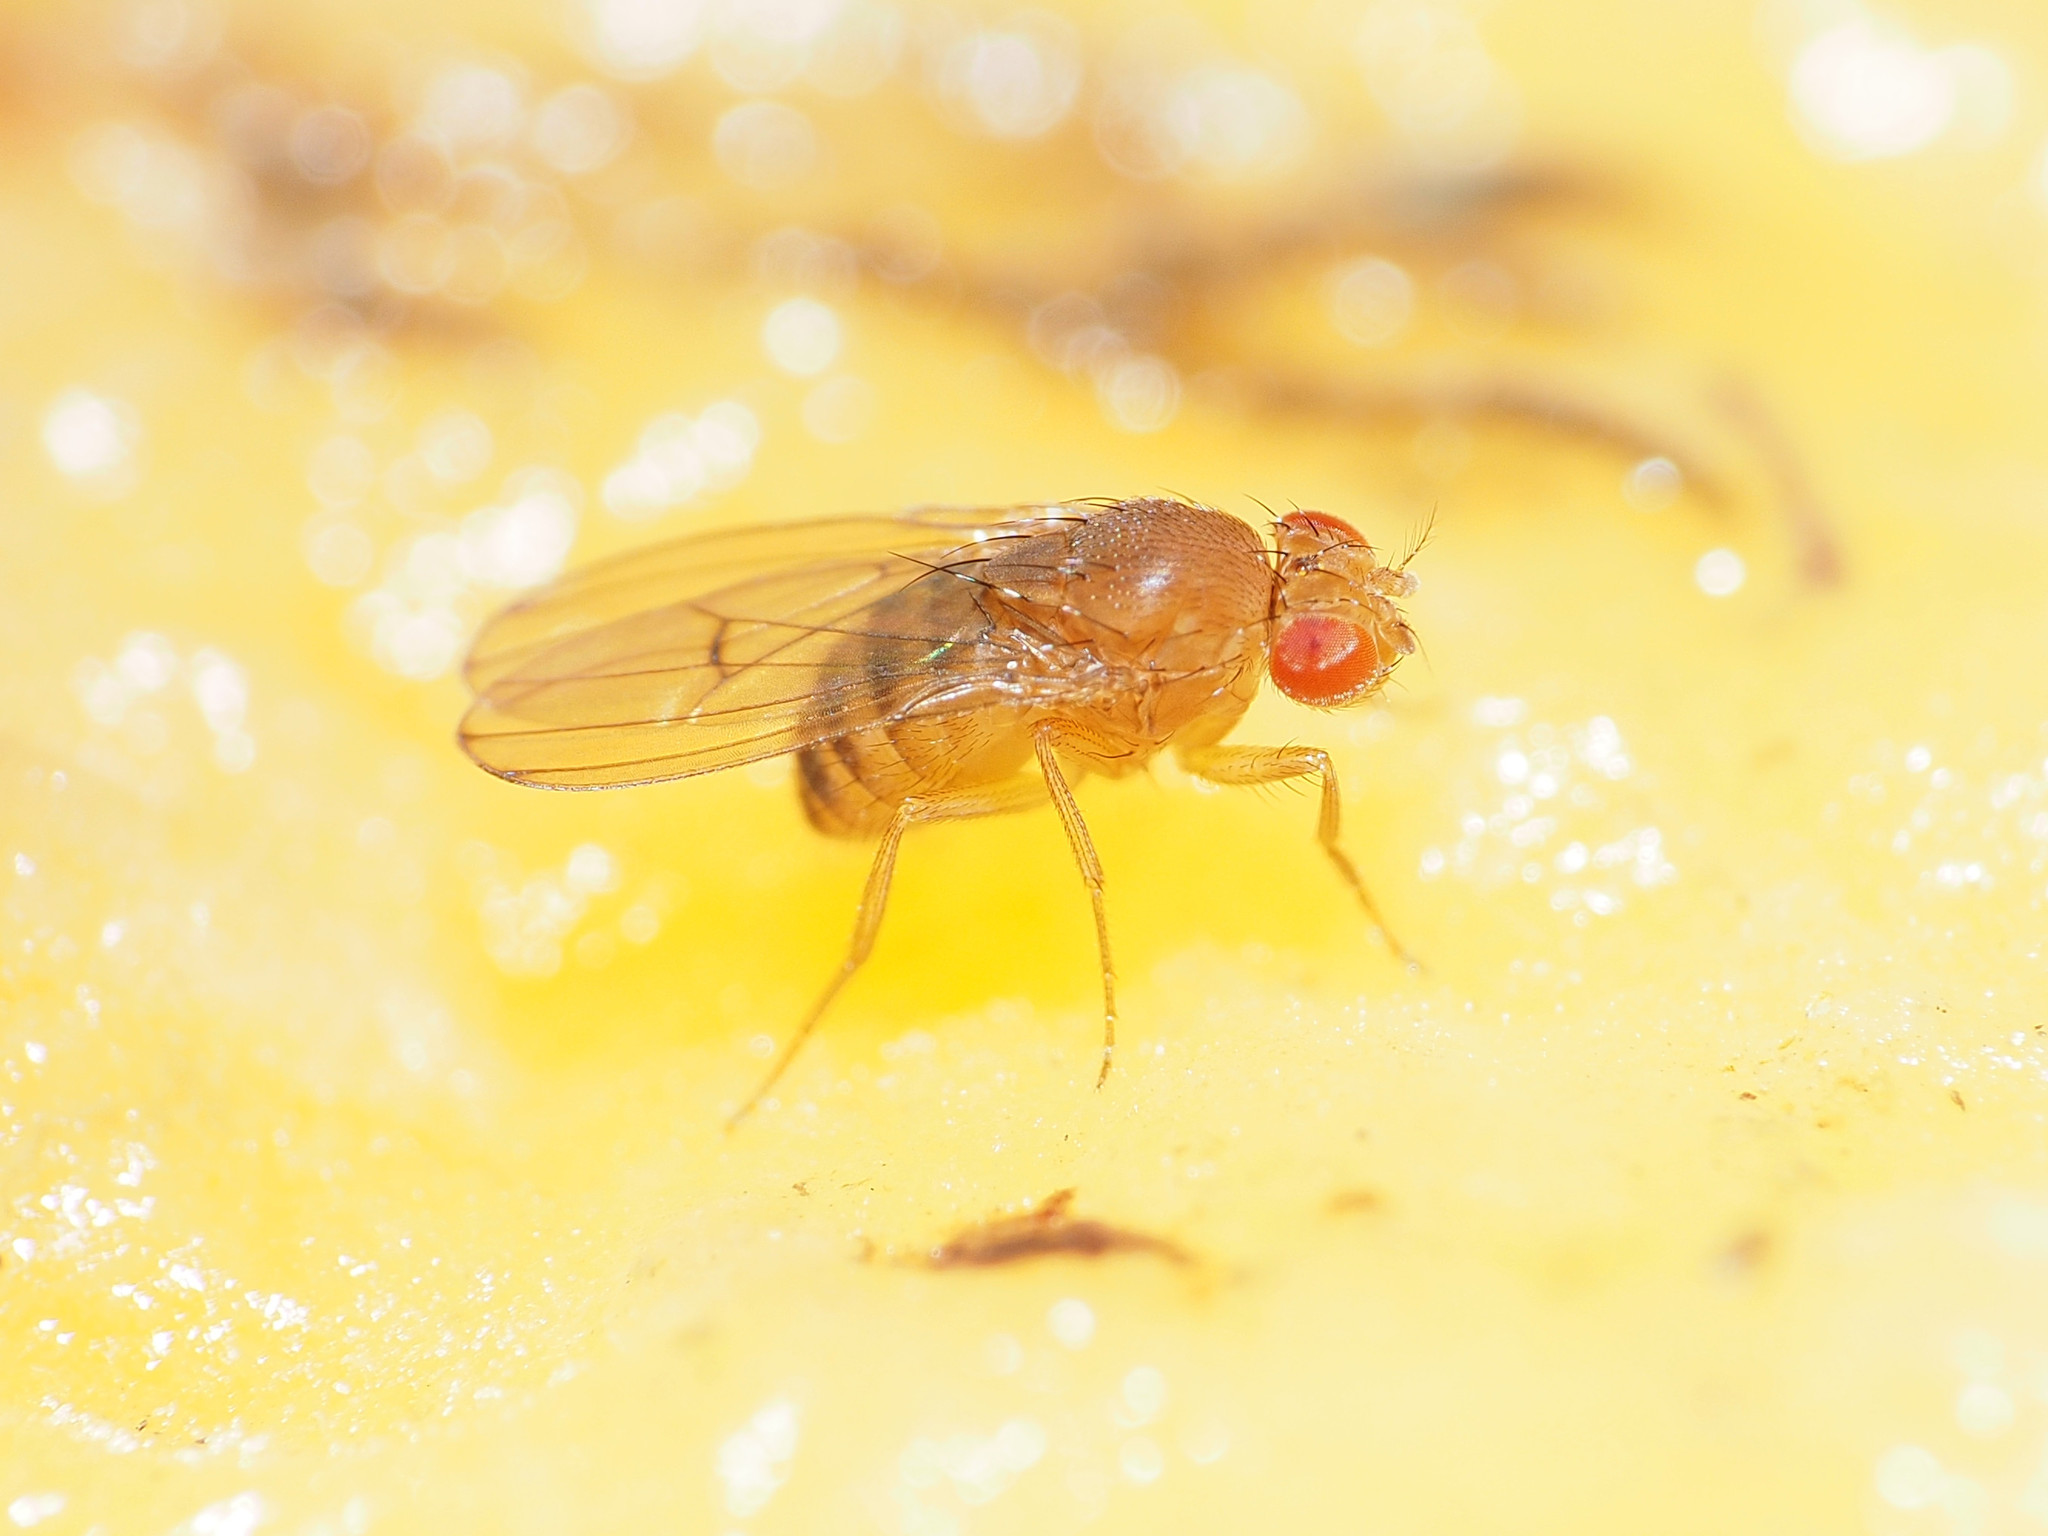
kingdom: Animalia
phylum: Arthropoda
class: Insecta
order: Diptera
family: Drosophilidae
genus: Drosophila
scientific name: Drosophila immigrans
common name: Pomace fly
